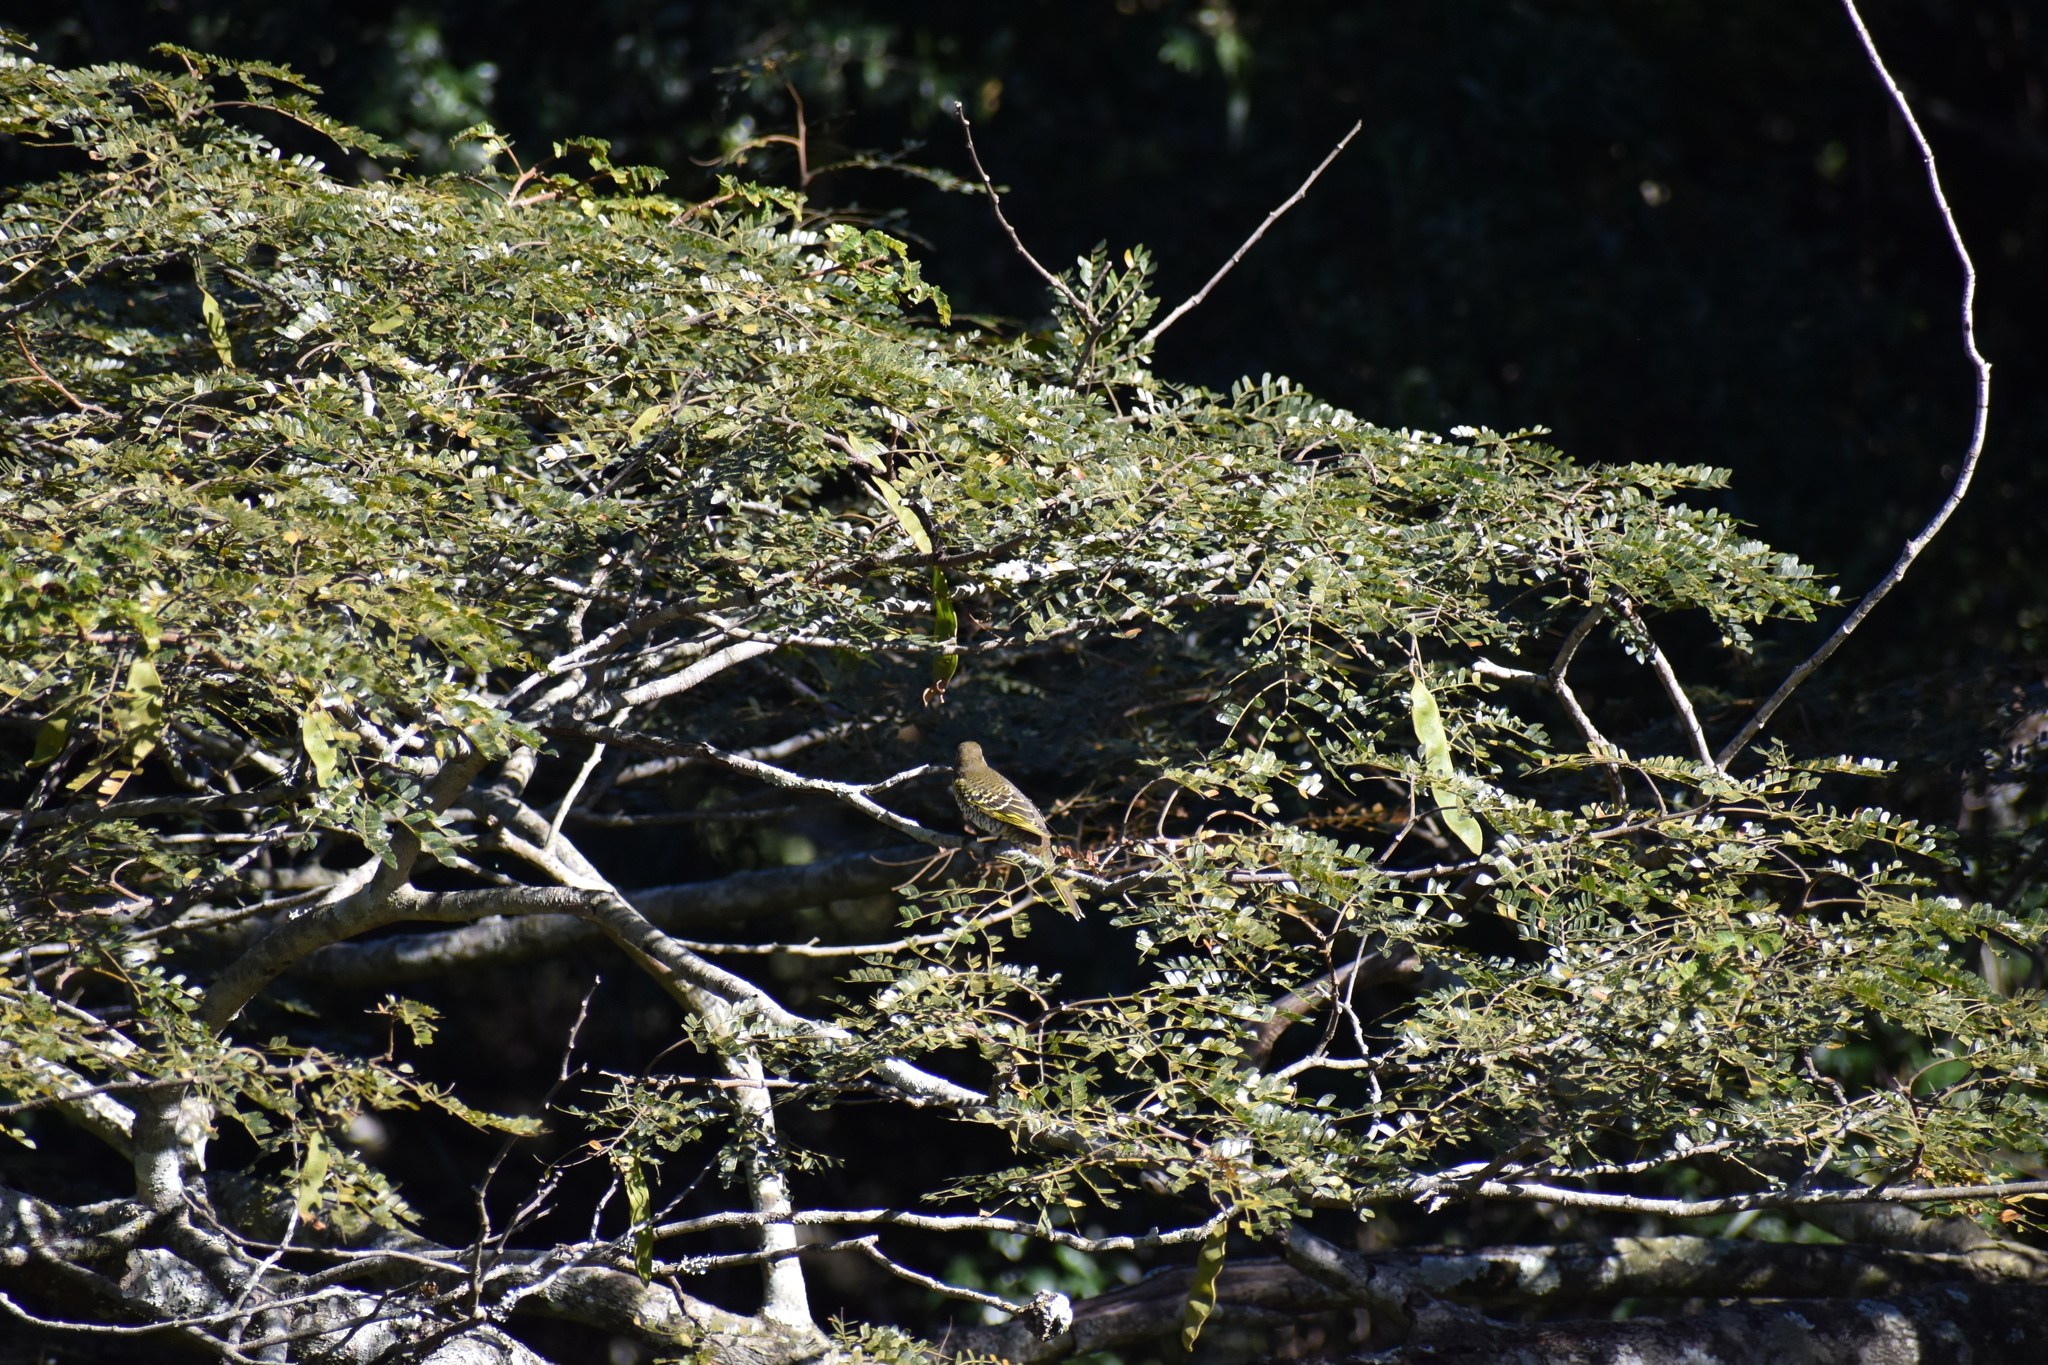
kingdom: Plantae
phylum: Tracheophyta
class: Magnoliopsida
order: Fabales
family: Fabaceae
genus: Albizia
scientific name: Albizia adianthifolia
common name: West african albizia
